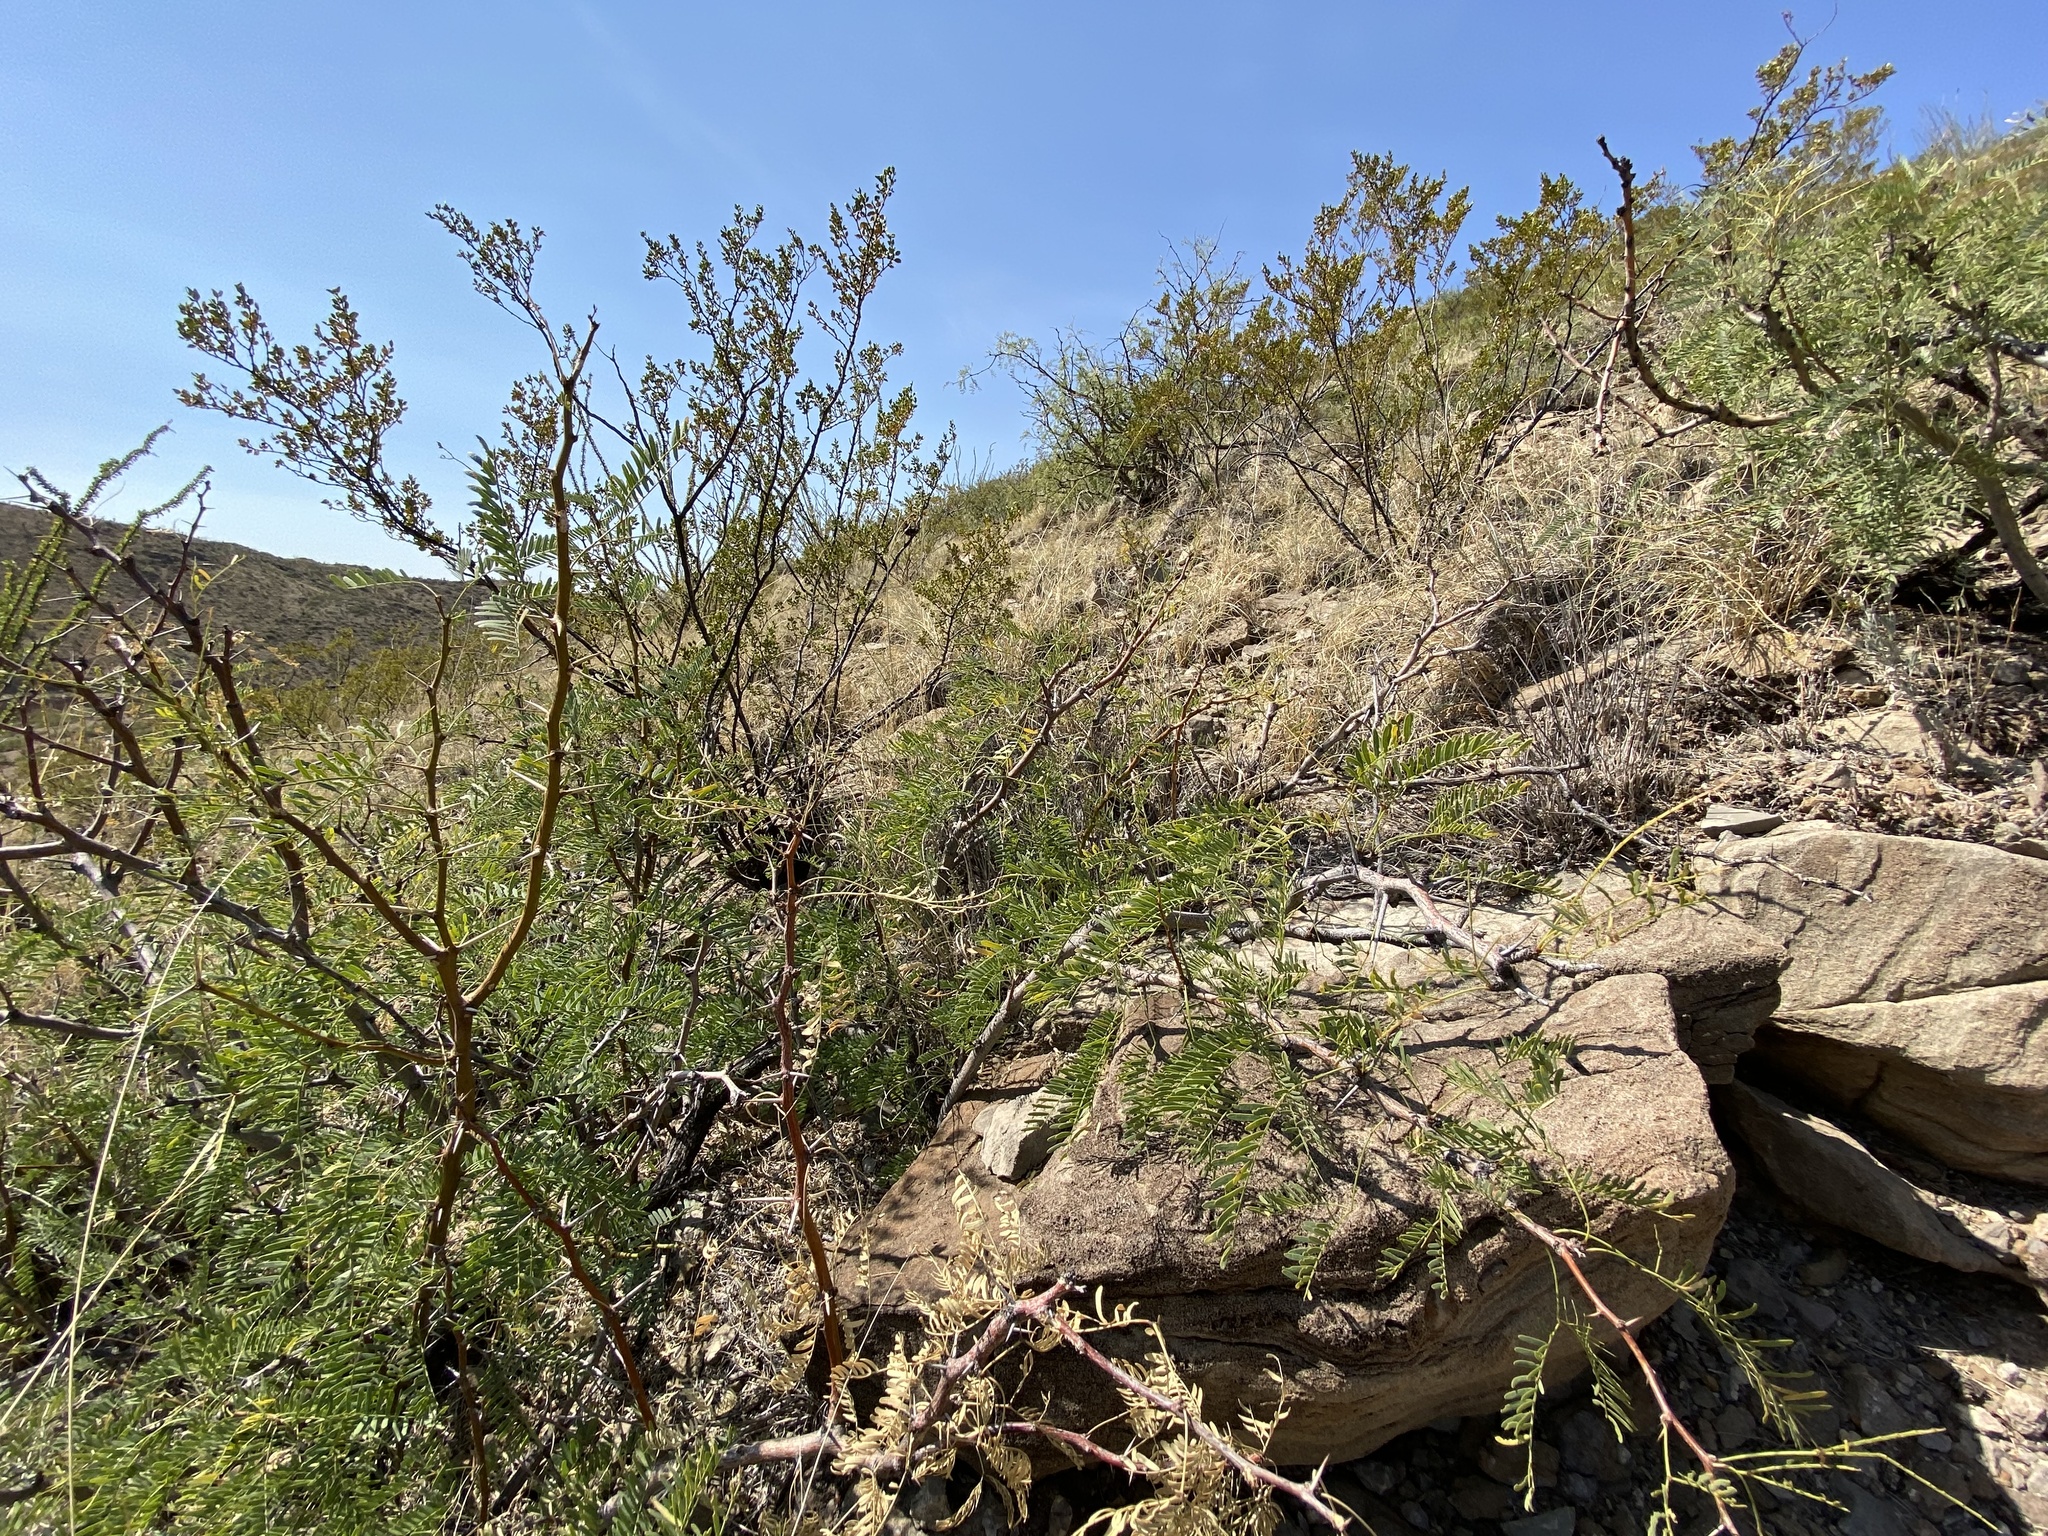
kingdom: Plantae
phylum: Tracheophyta
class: Magnoliopsida
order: Fabales
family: Fabaceae
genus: Prosopis
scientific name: Prosopis glandulosa
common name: Honey mesquite
